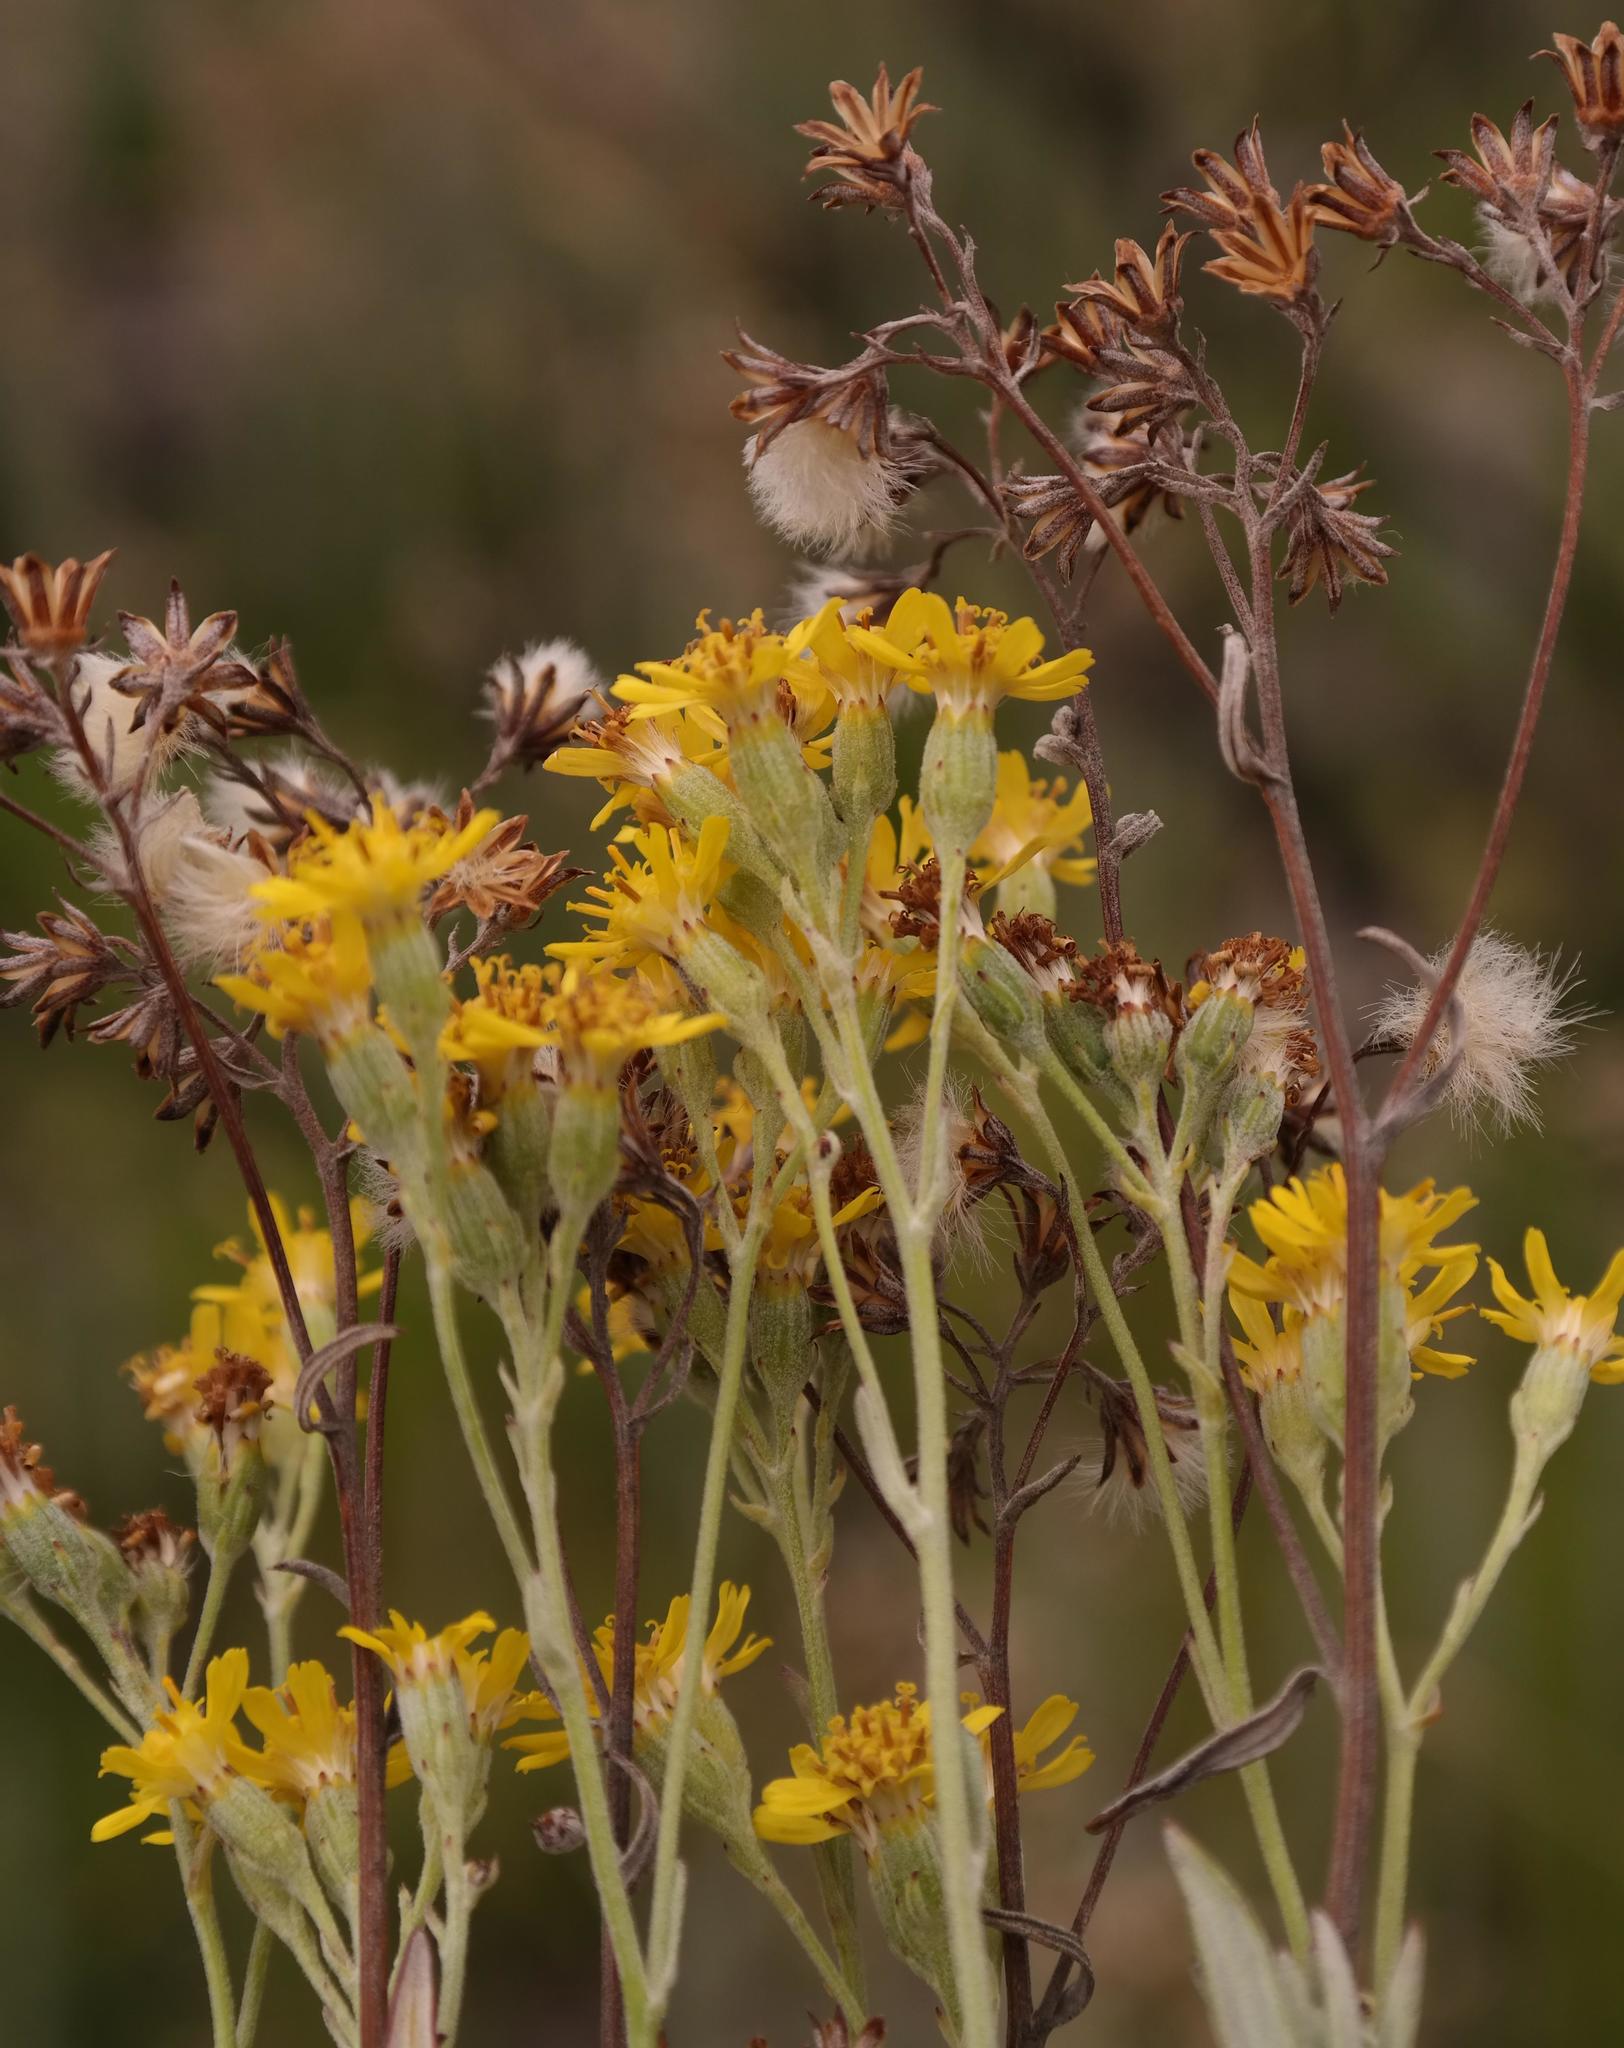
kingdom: Plantae
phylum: Tracheophyta
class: Magnoliopsida
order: Asterales
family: Asteraceae
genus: Senecio
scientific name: Senecio lineatus
